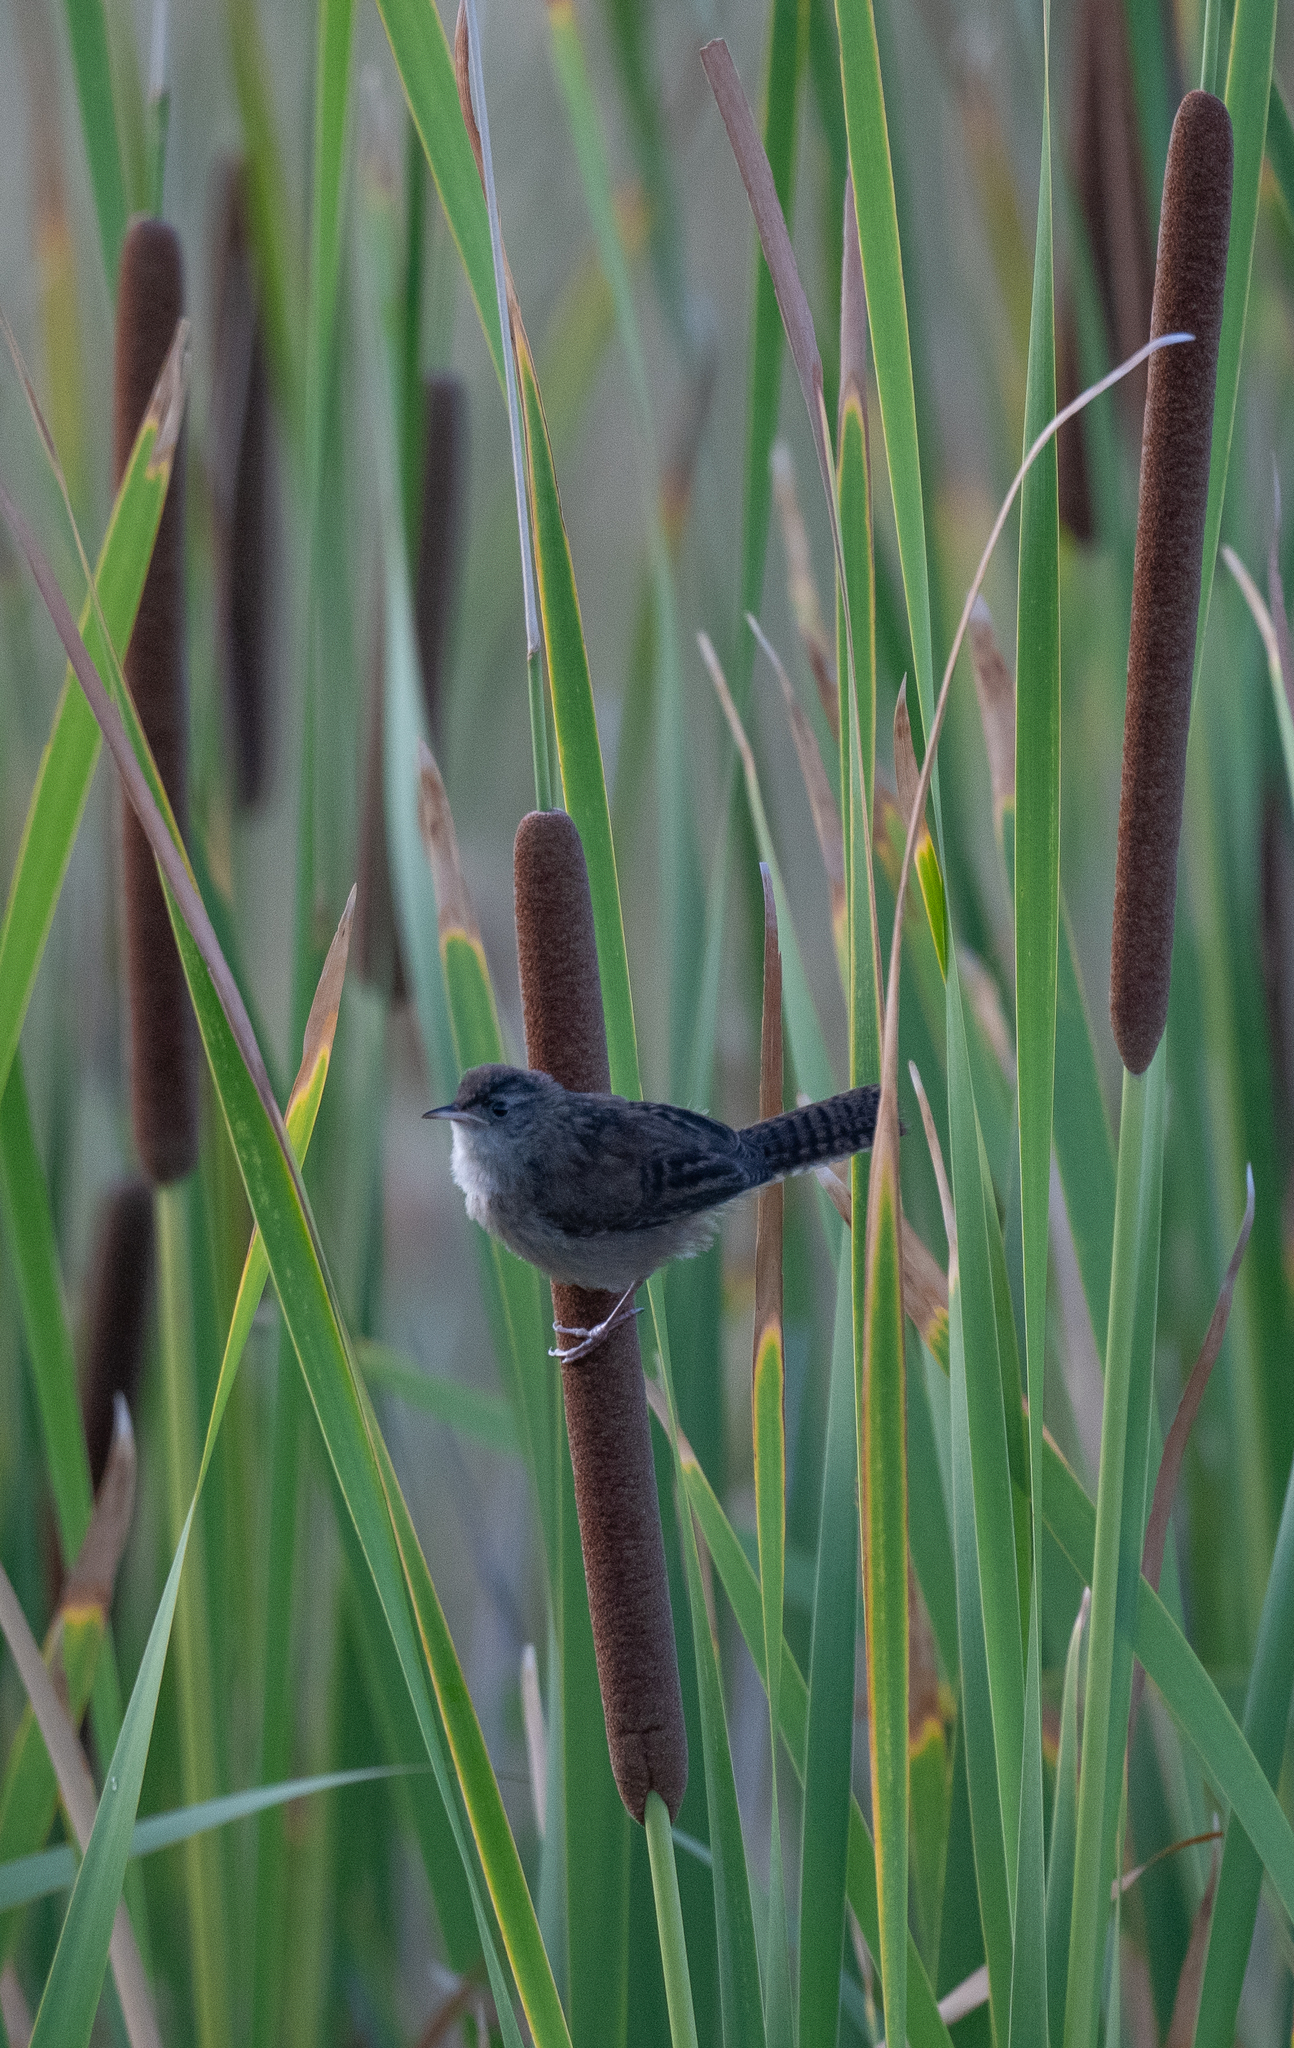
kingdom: Animalia
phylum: Chordata
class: Aves
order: Passeriformes
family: Troglodytidae
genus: Cistothorus
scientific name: Cistothorus palustris
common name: Marsh wren
